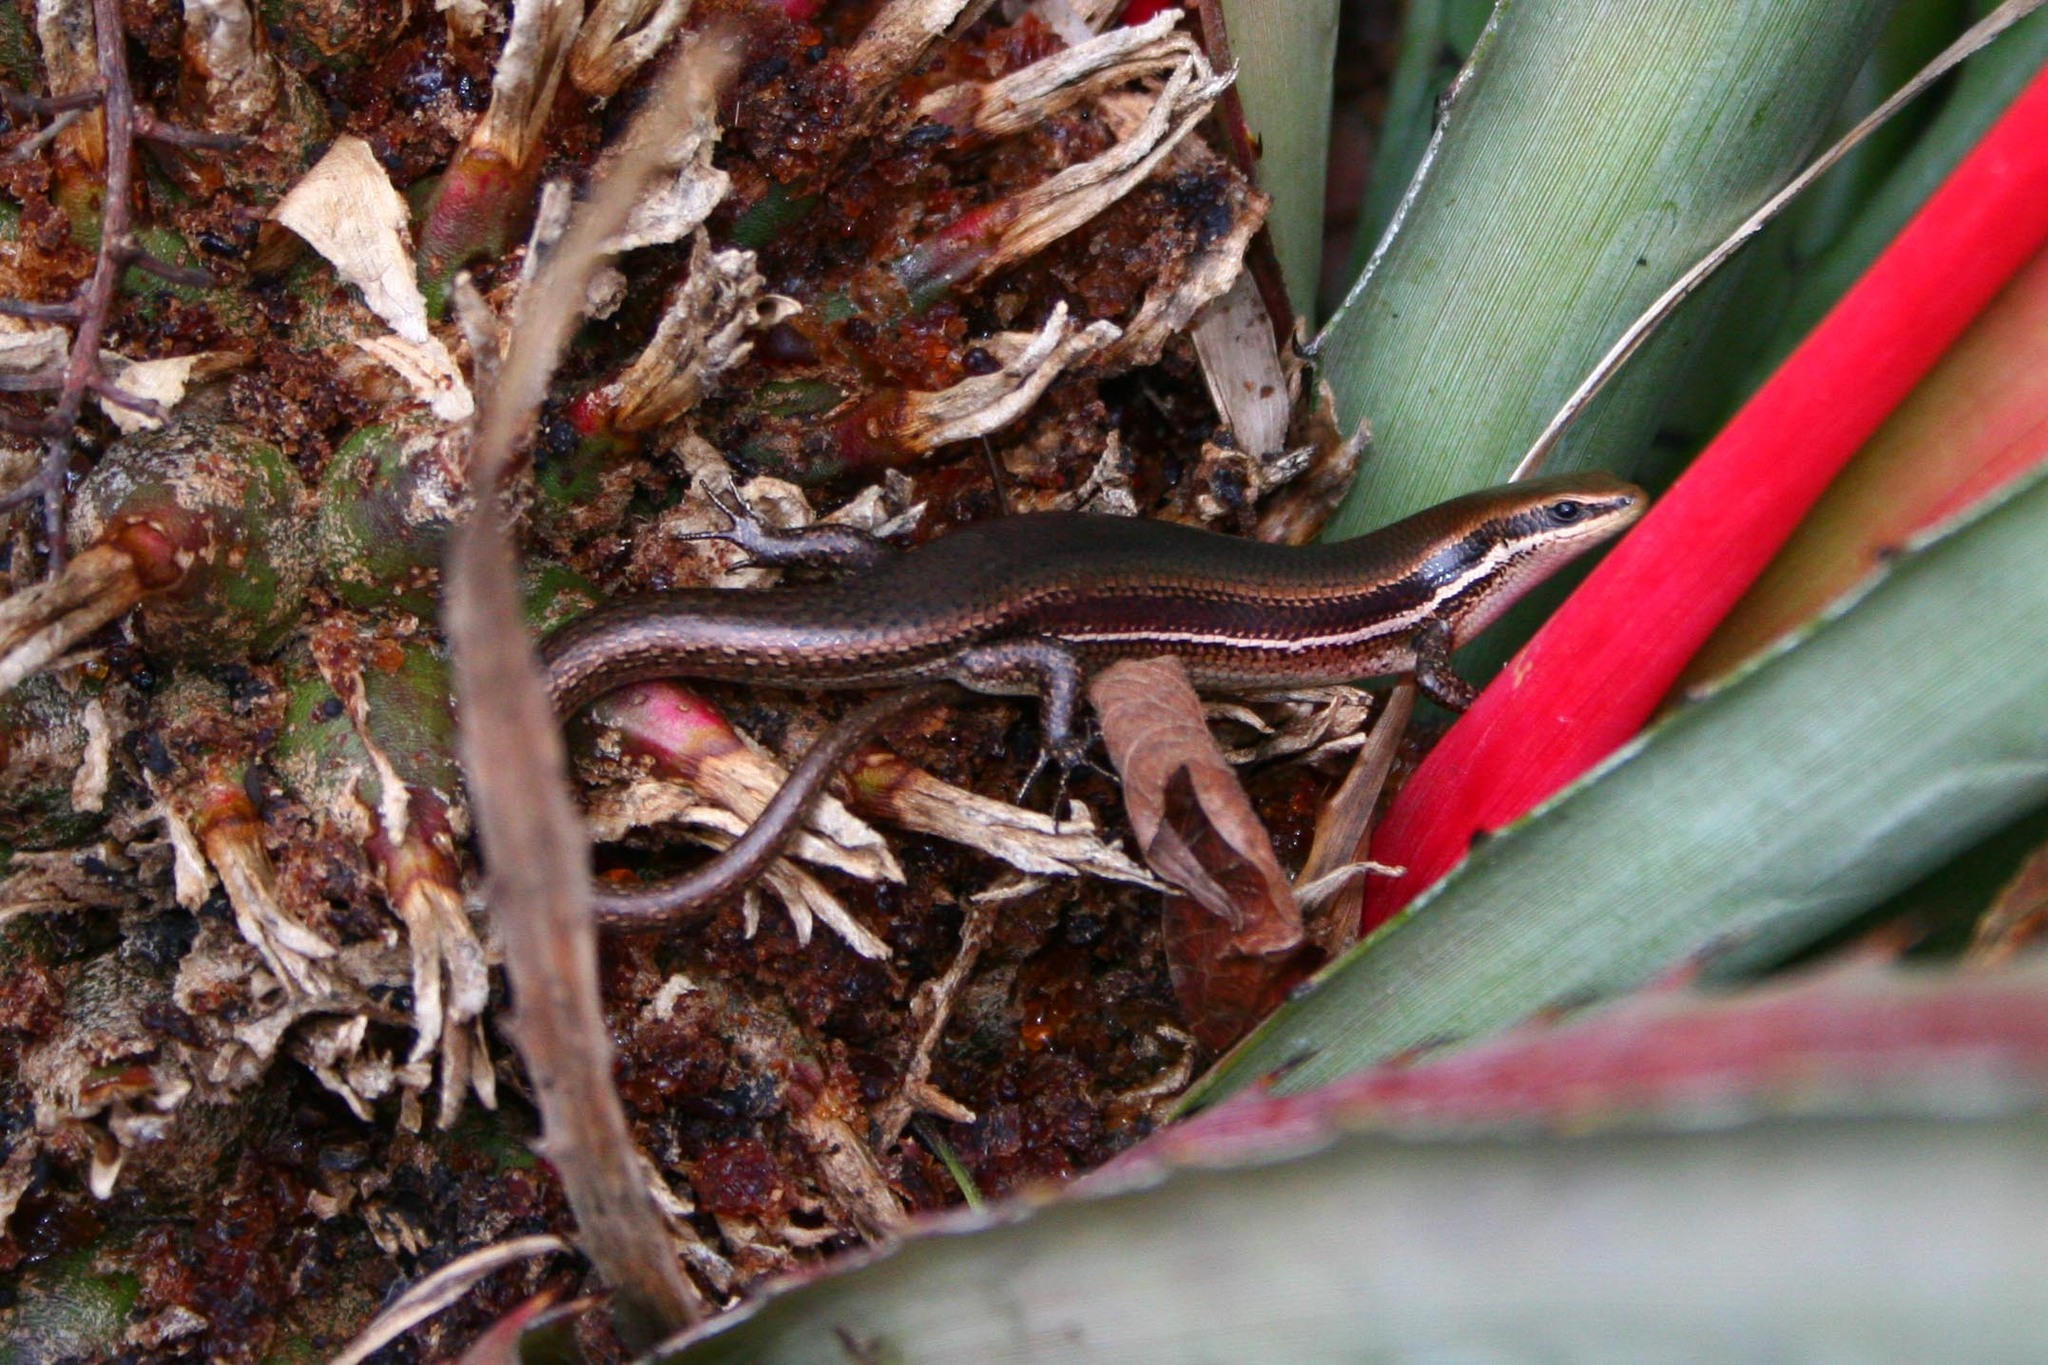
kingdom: Animalia
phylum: Chordata
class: Squamata
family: Scincidae
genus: Marisora
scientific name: Marisora brachypoda
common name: Western middle america skink
